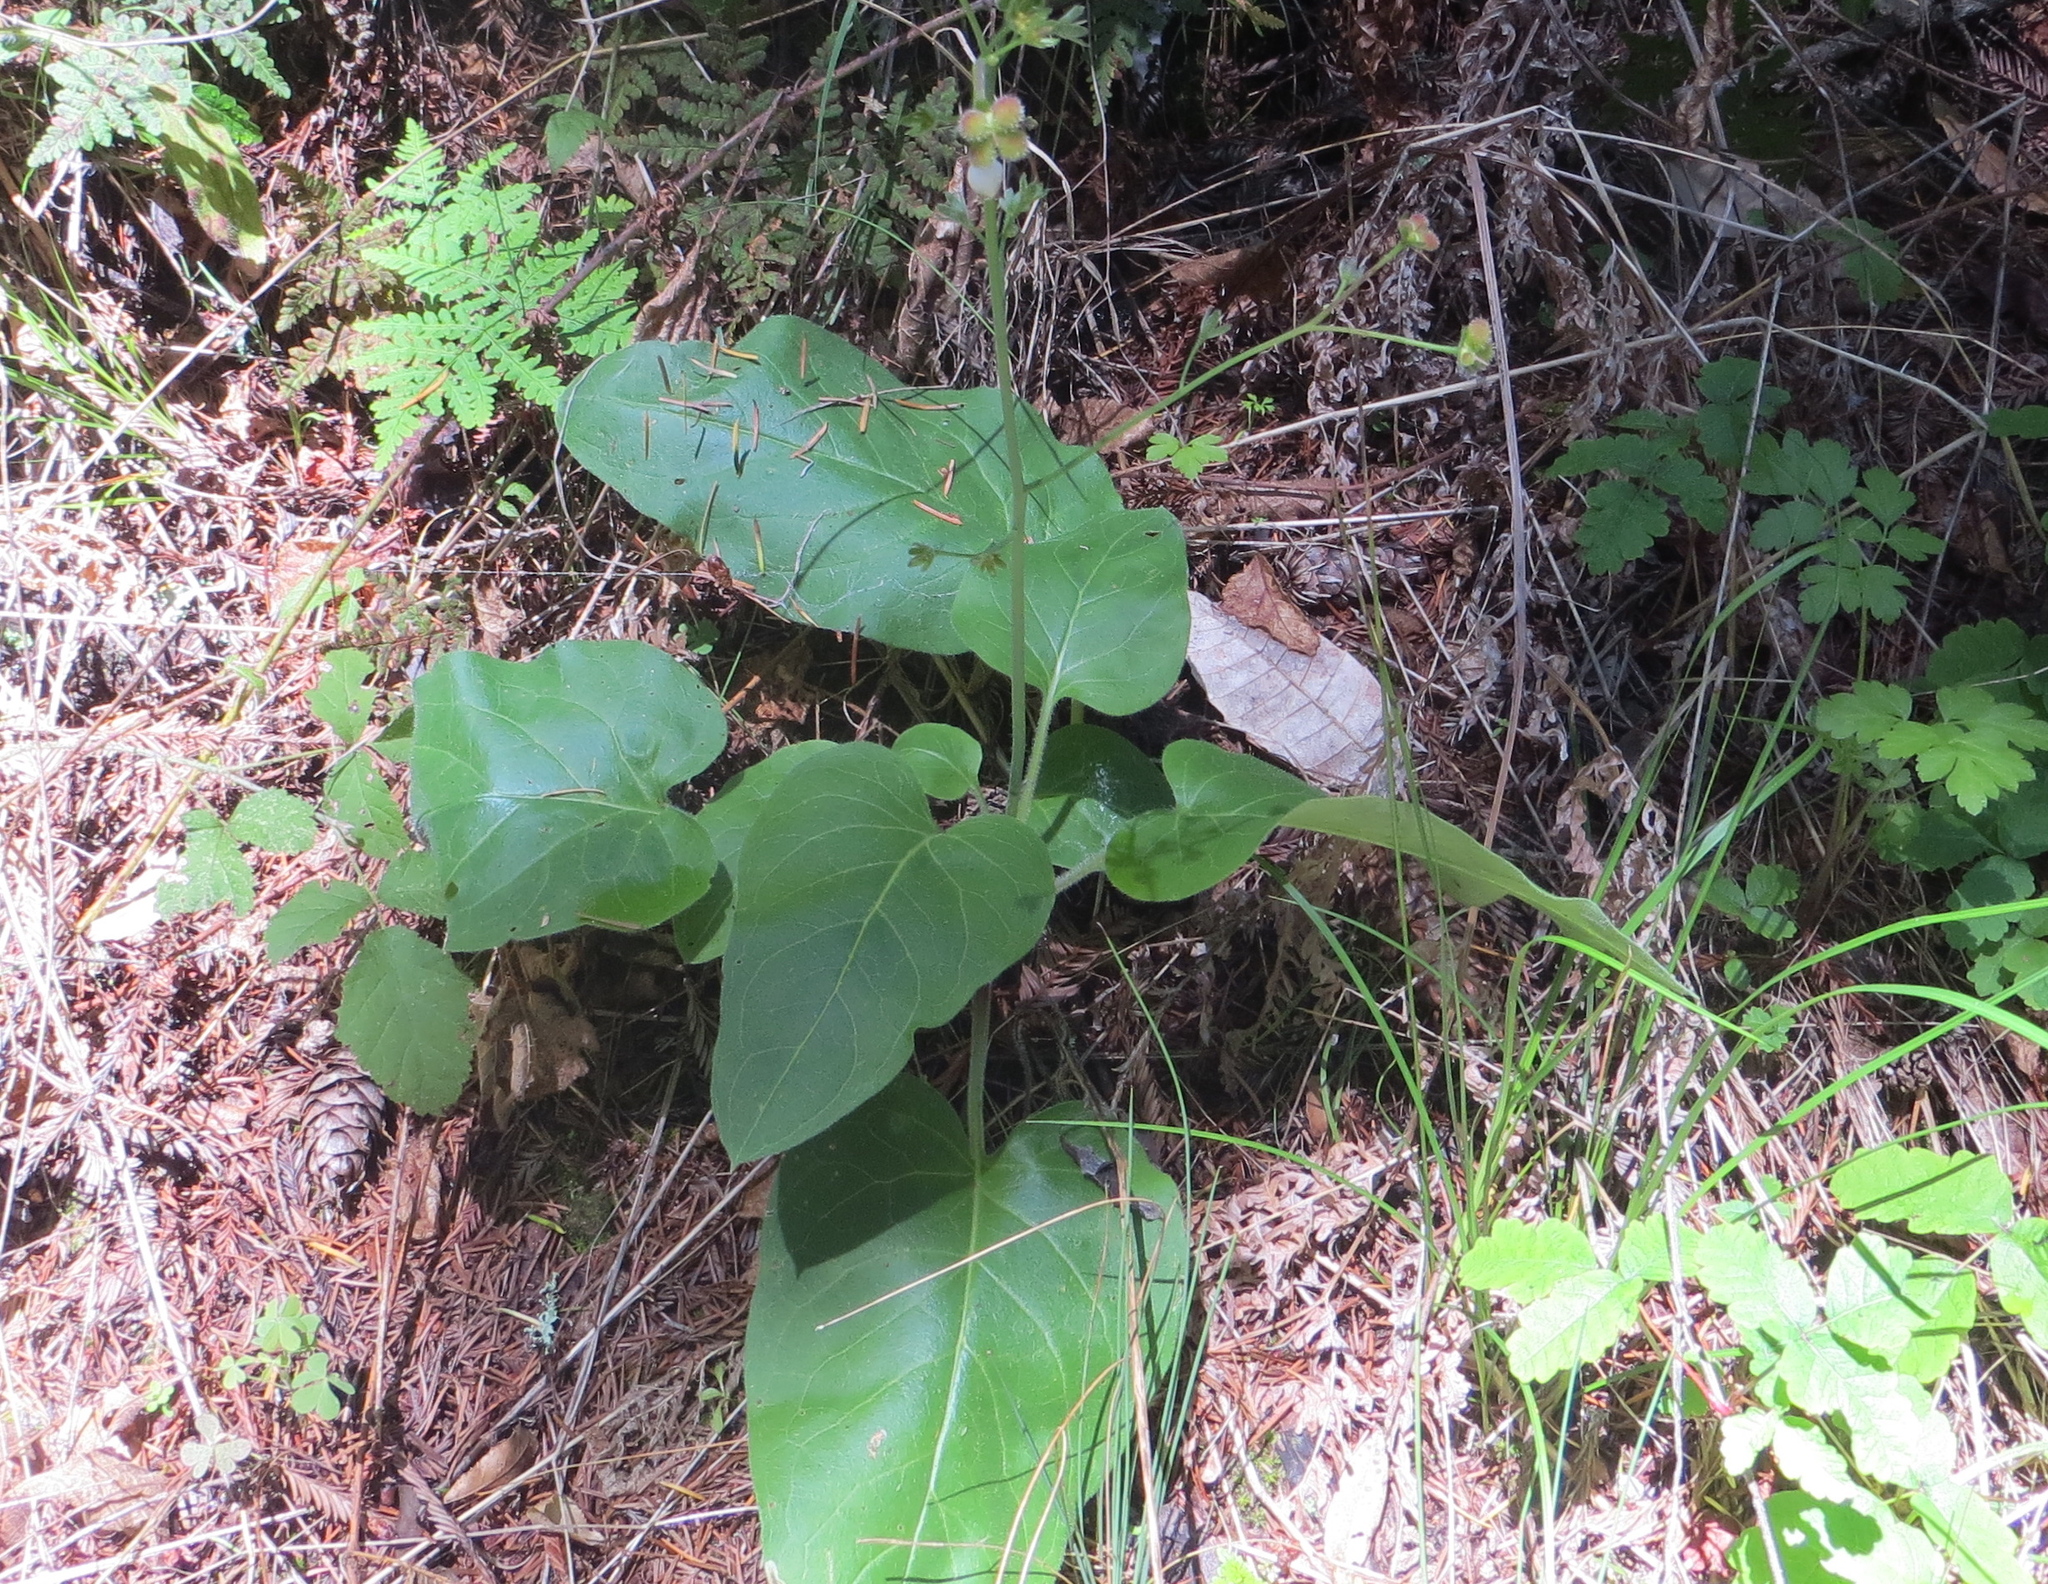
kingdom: Plantae
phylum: Tracheophyta
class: Magnoliopsida
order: Boraginales
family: Boraginaceae
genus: Adelinia
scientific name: Adelinia grande
